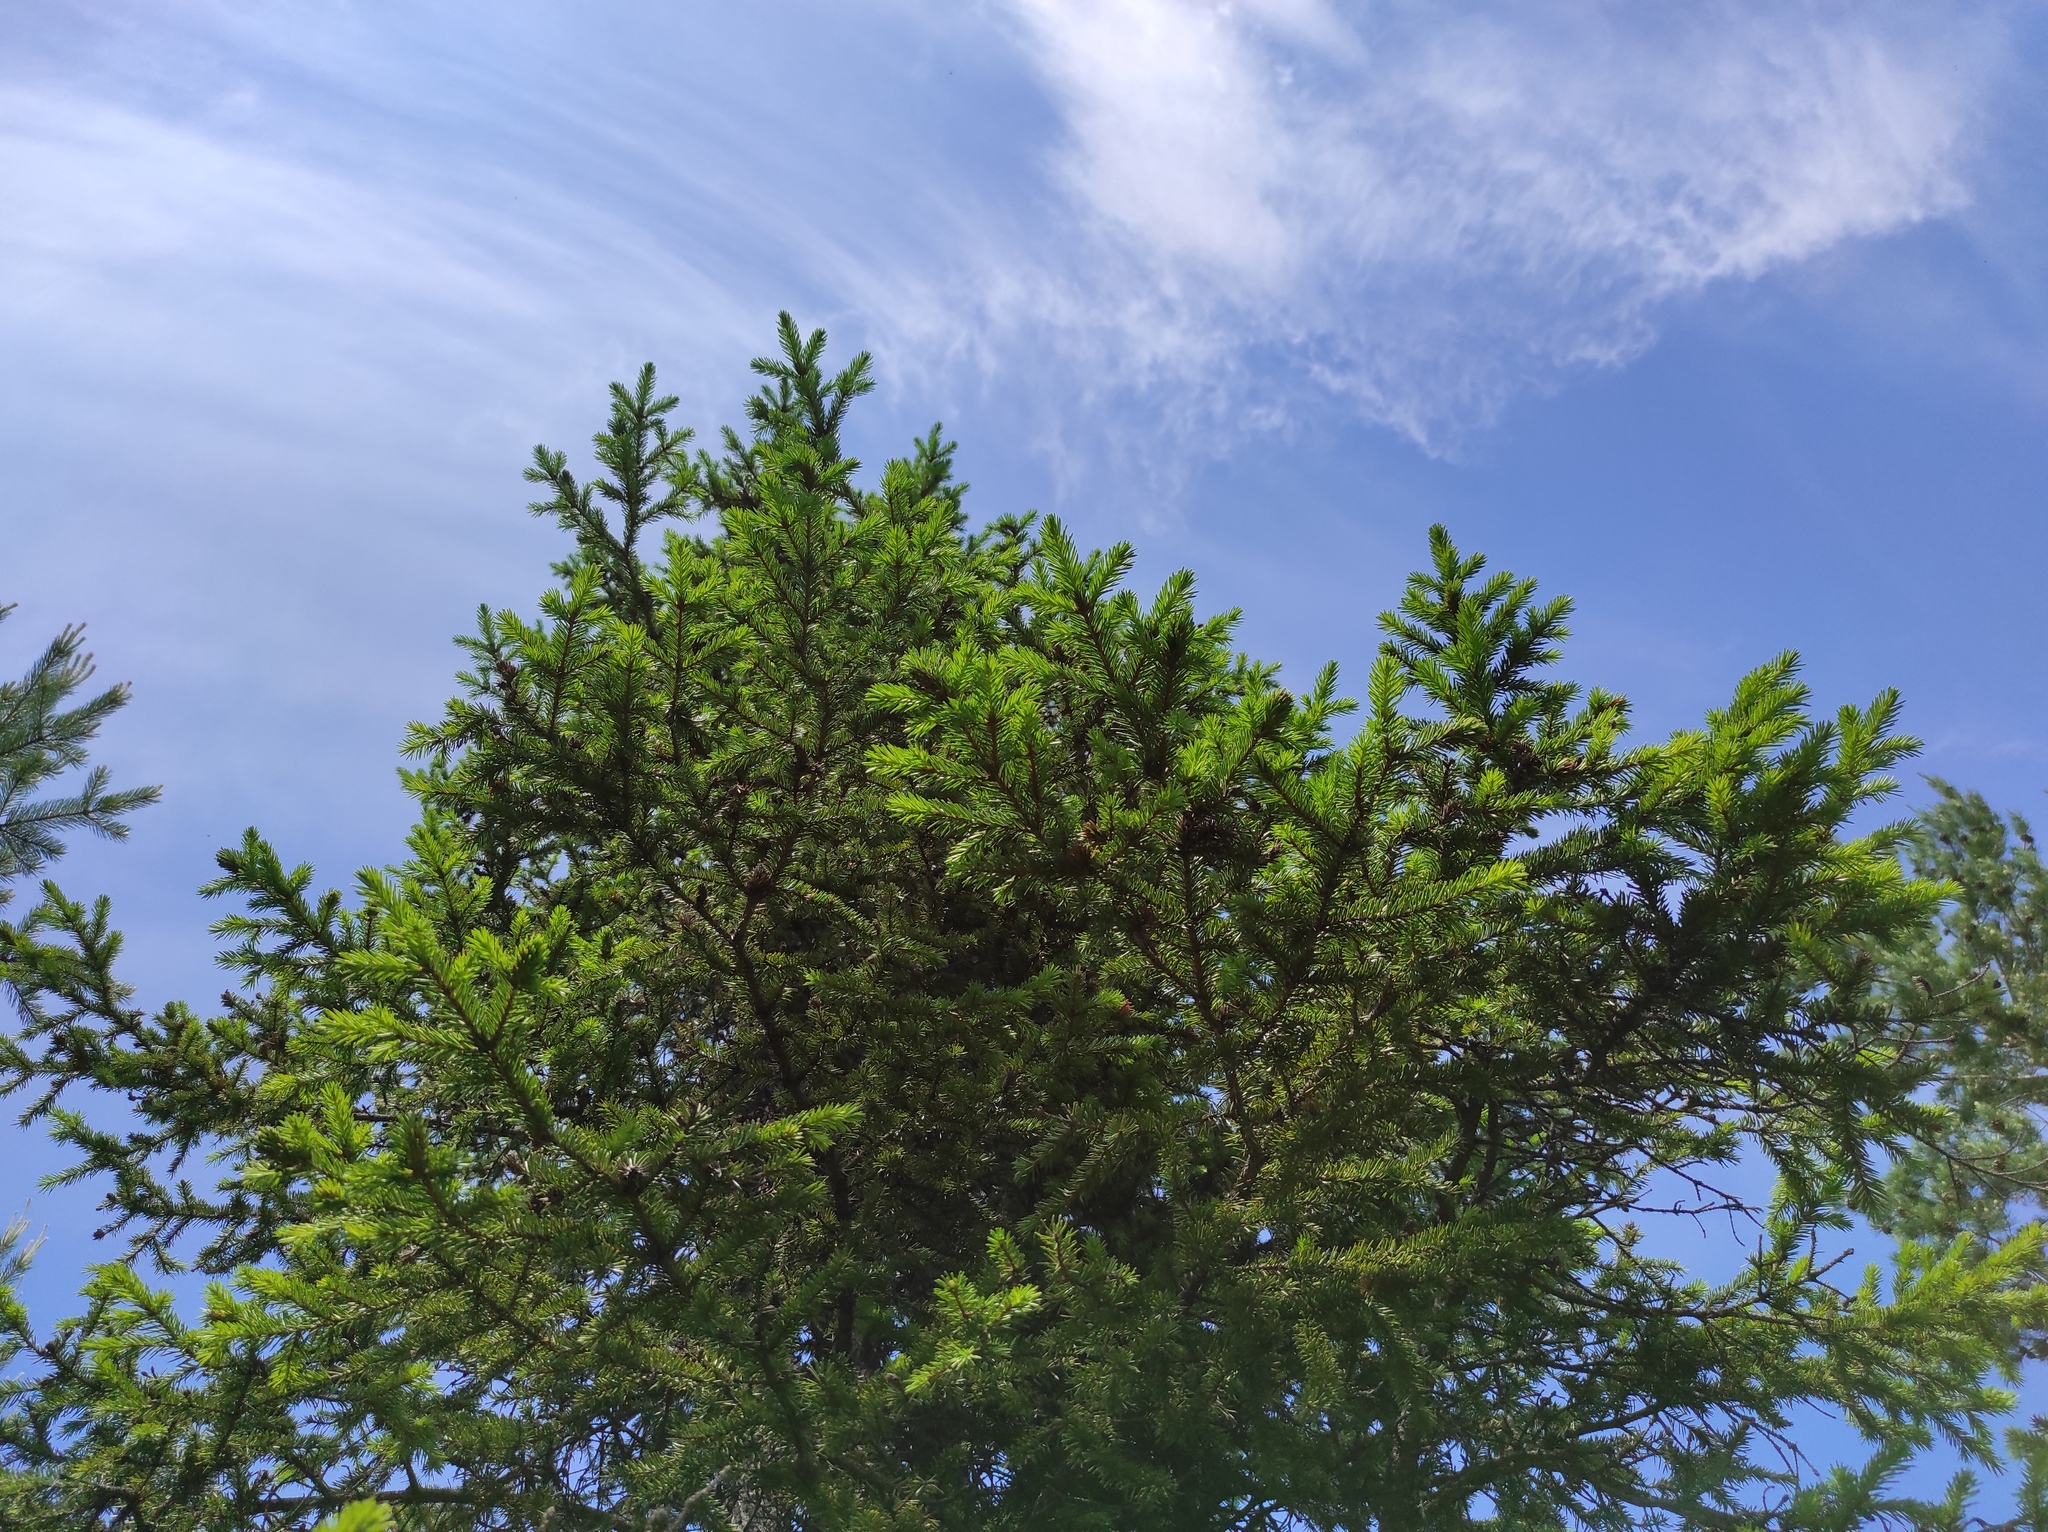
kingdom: Plantae
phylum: Tracheophyta
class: Pinopsida
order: Pinales
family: Pinaceae
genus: Picea
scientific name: Picea obovata
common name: Siberian spruce
